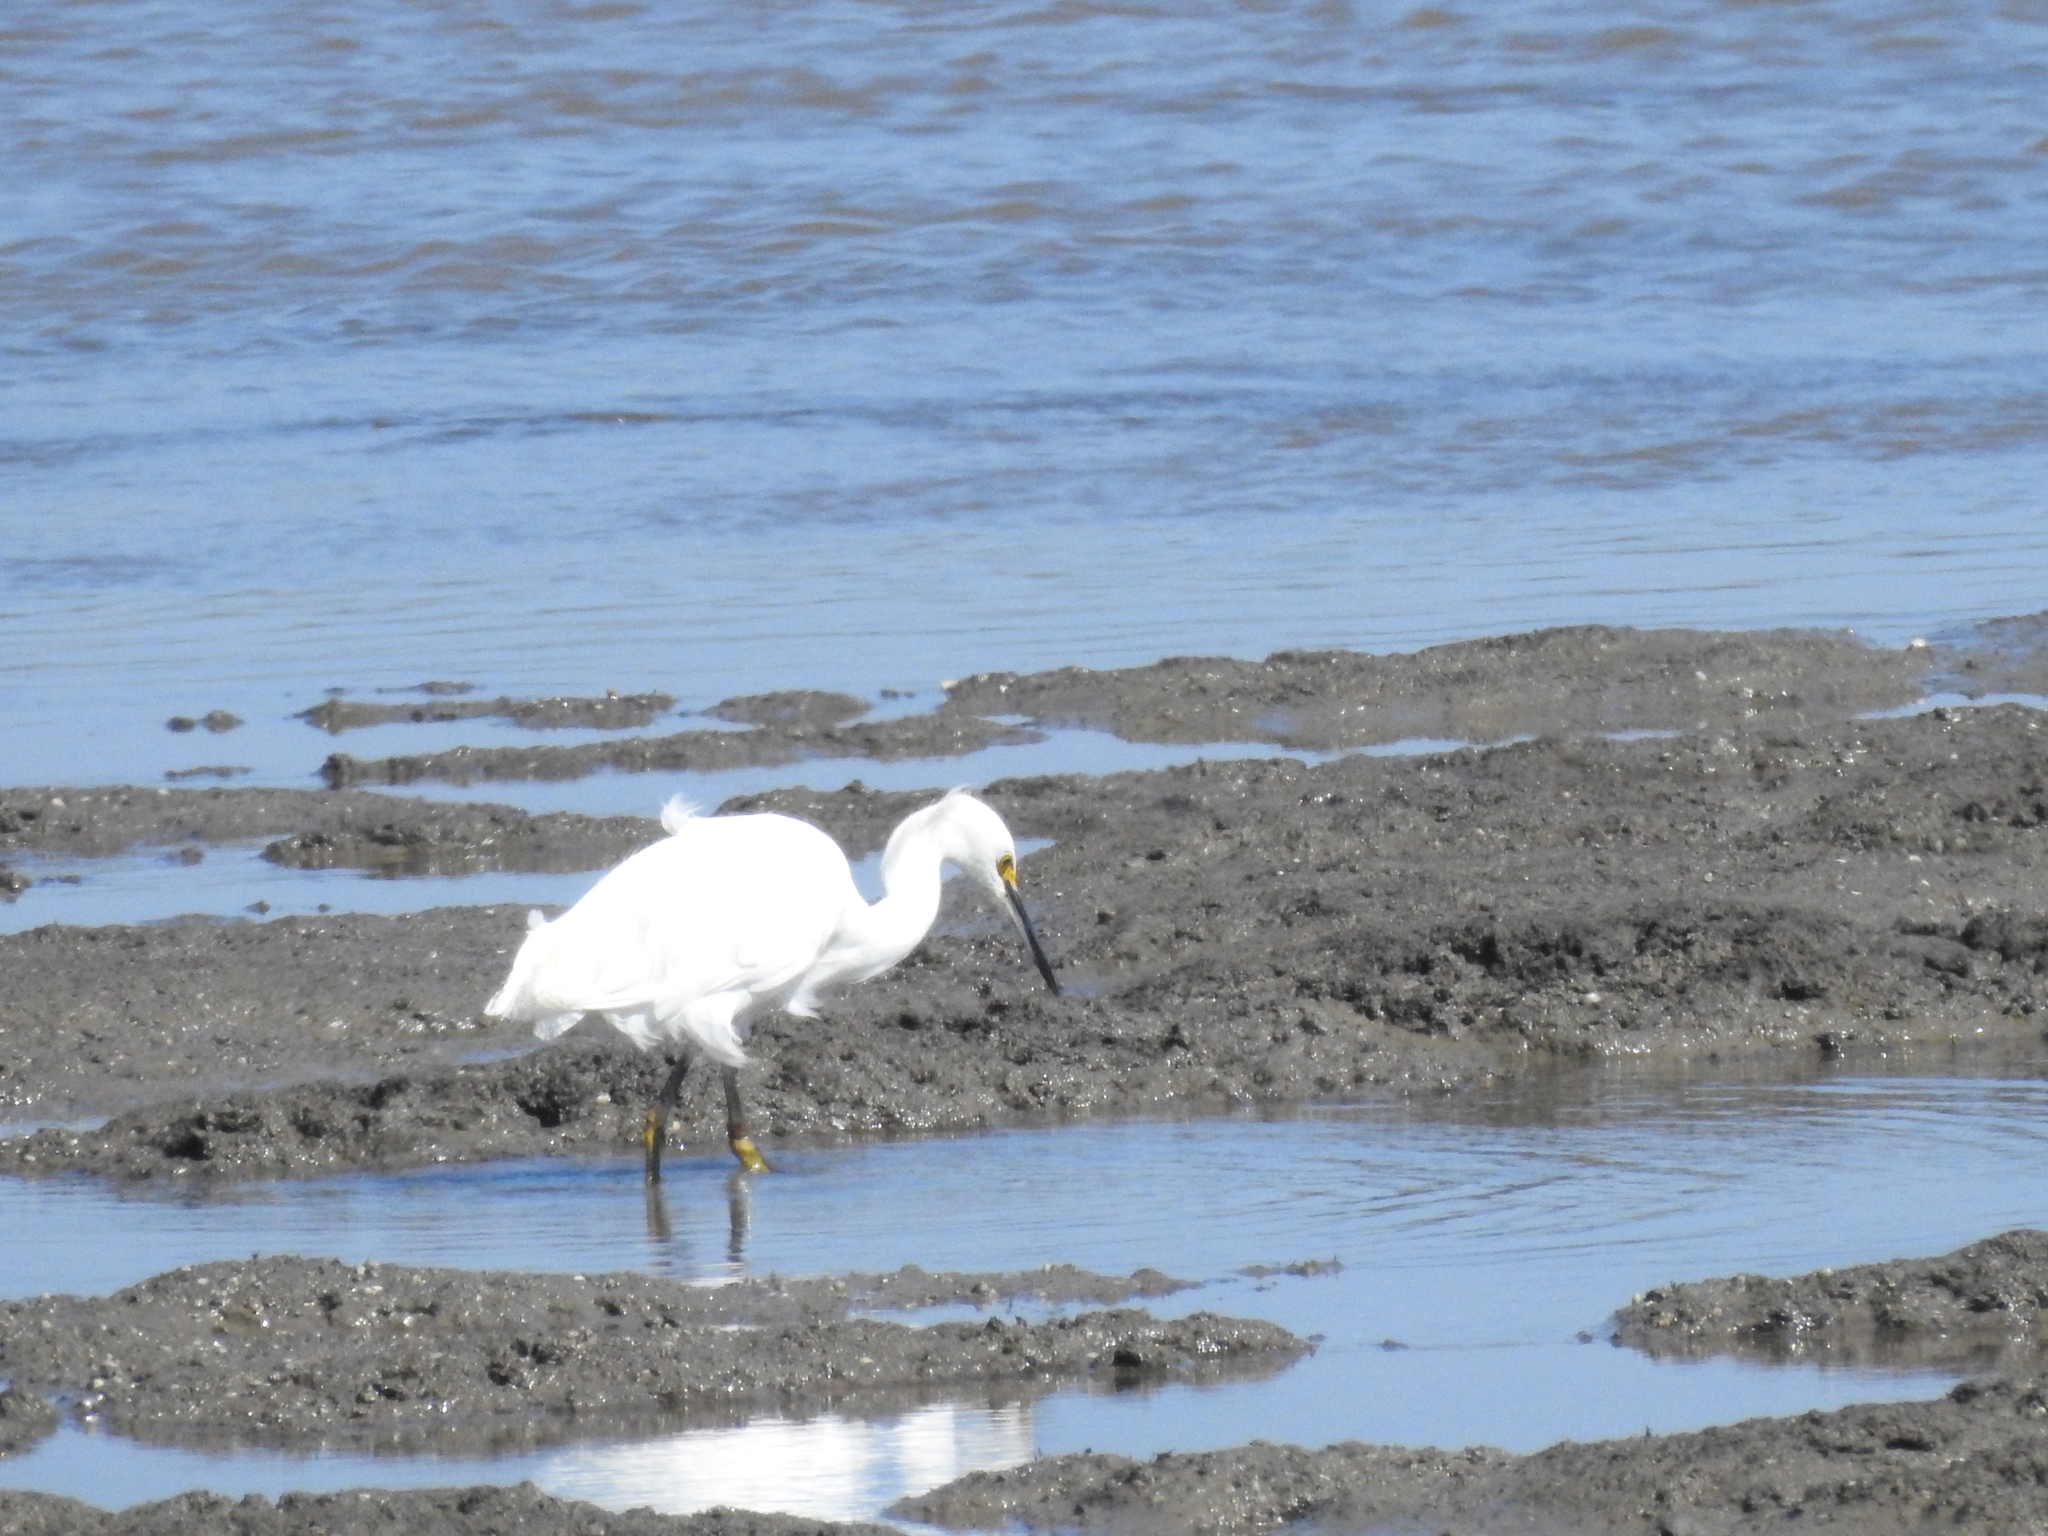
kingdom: Animalia
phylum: Chordata
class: Aves
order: Pelecaniformes
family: Ardeidae
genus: Egretta
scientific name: Egretta thula
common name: Snowy egret
